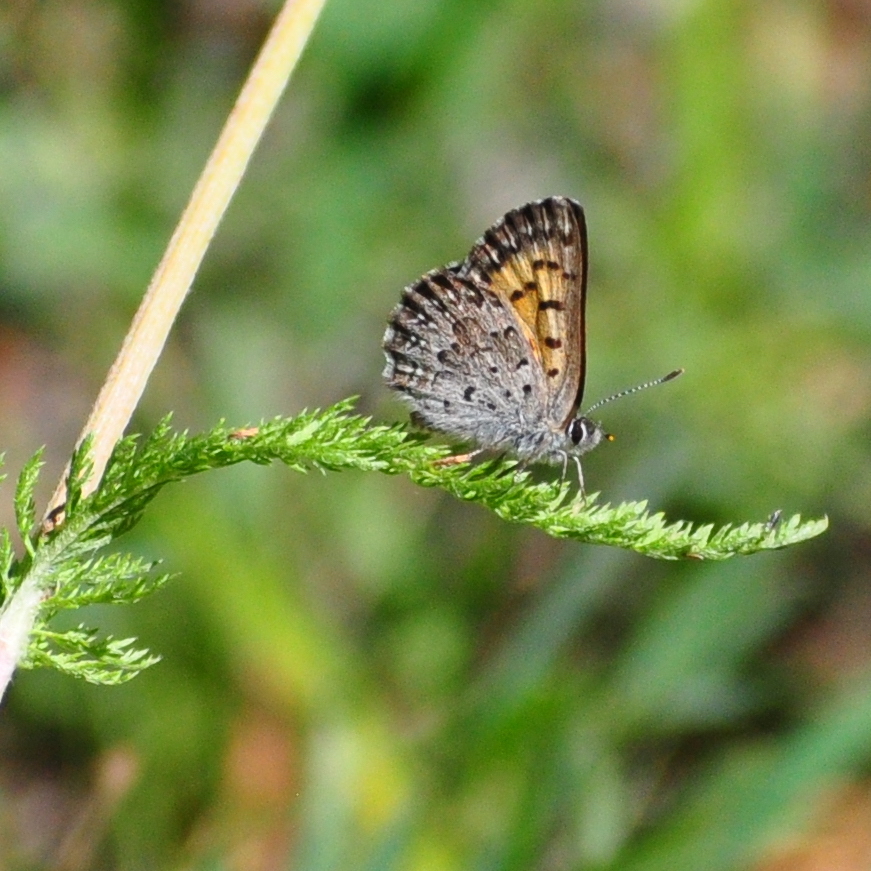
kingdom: Animalia
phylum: Arthropoda
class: Insecta
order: Lepidoptera
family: Lycaenidae
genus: Tharsalea
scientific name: Tharsalea mariposa
